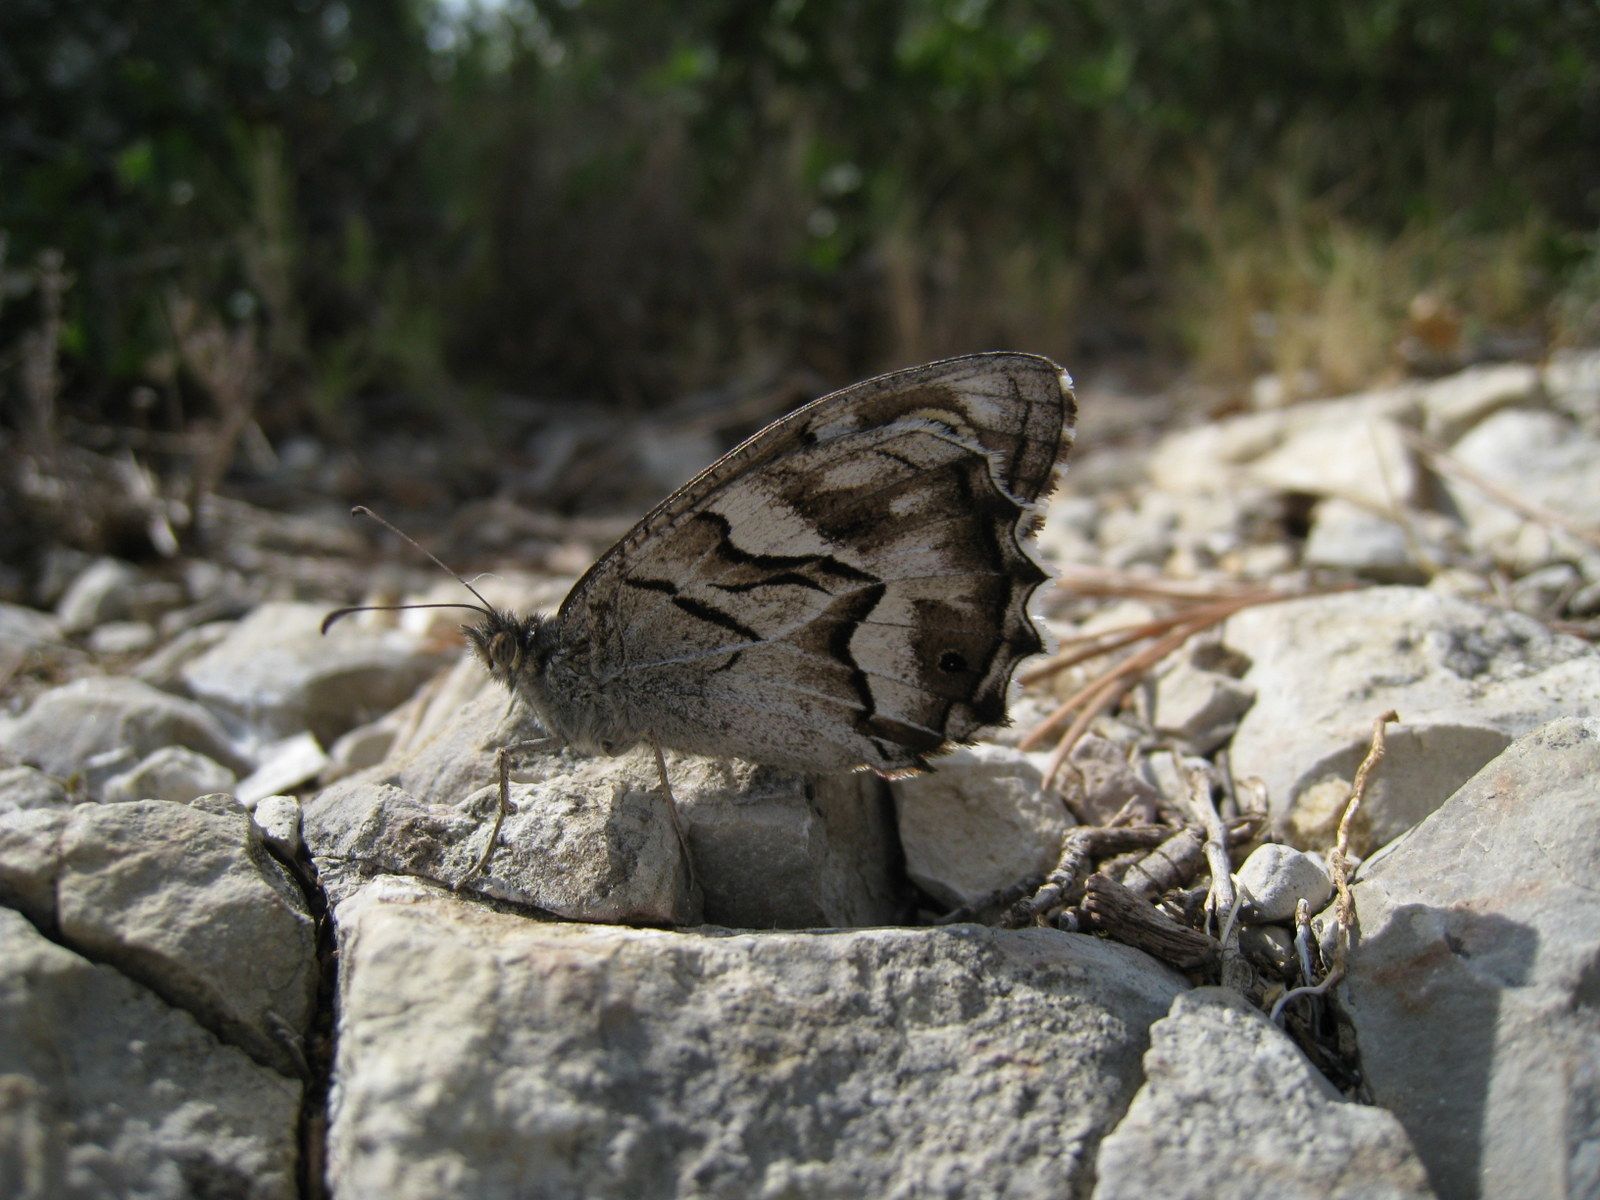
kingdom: Animalia
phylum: Arthropoda
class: Insecta
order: Lepidoptera
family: Nymphalidae
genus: Hipparchia
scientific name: Hipparchia fidia
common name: Striped grayling
